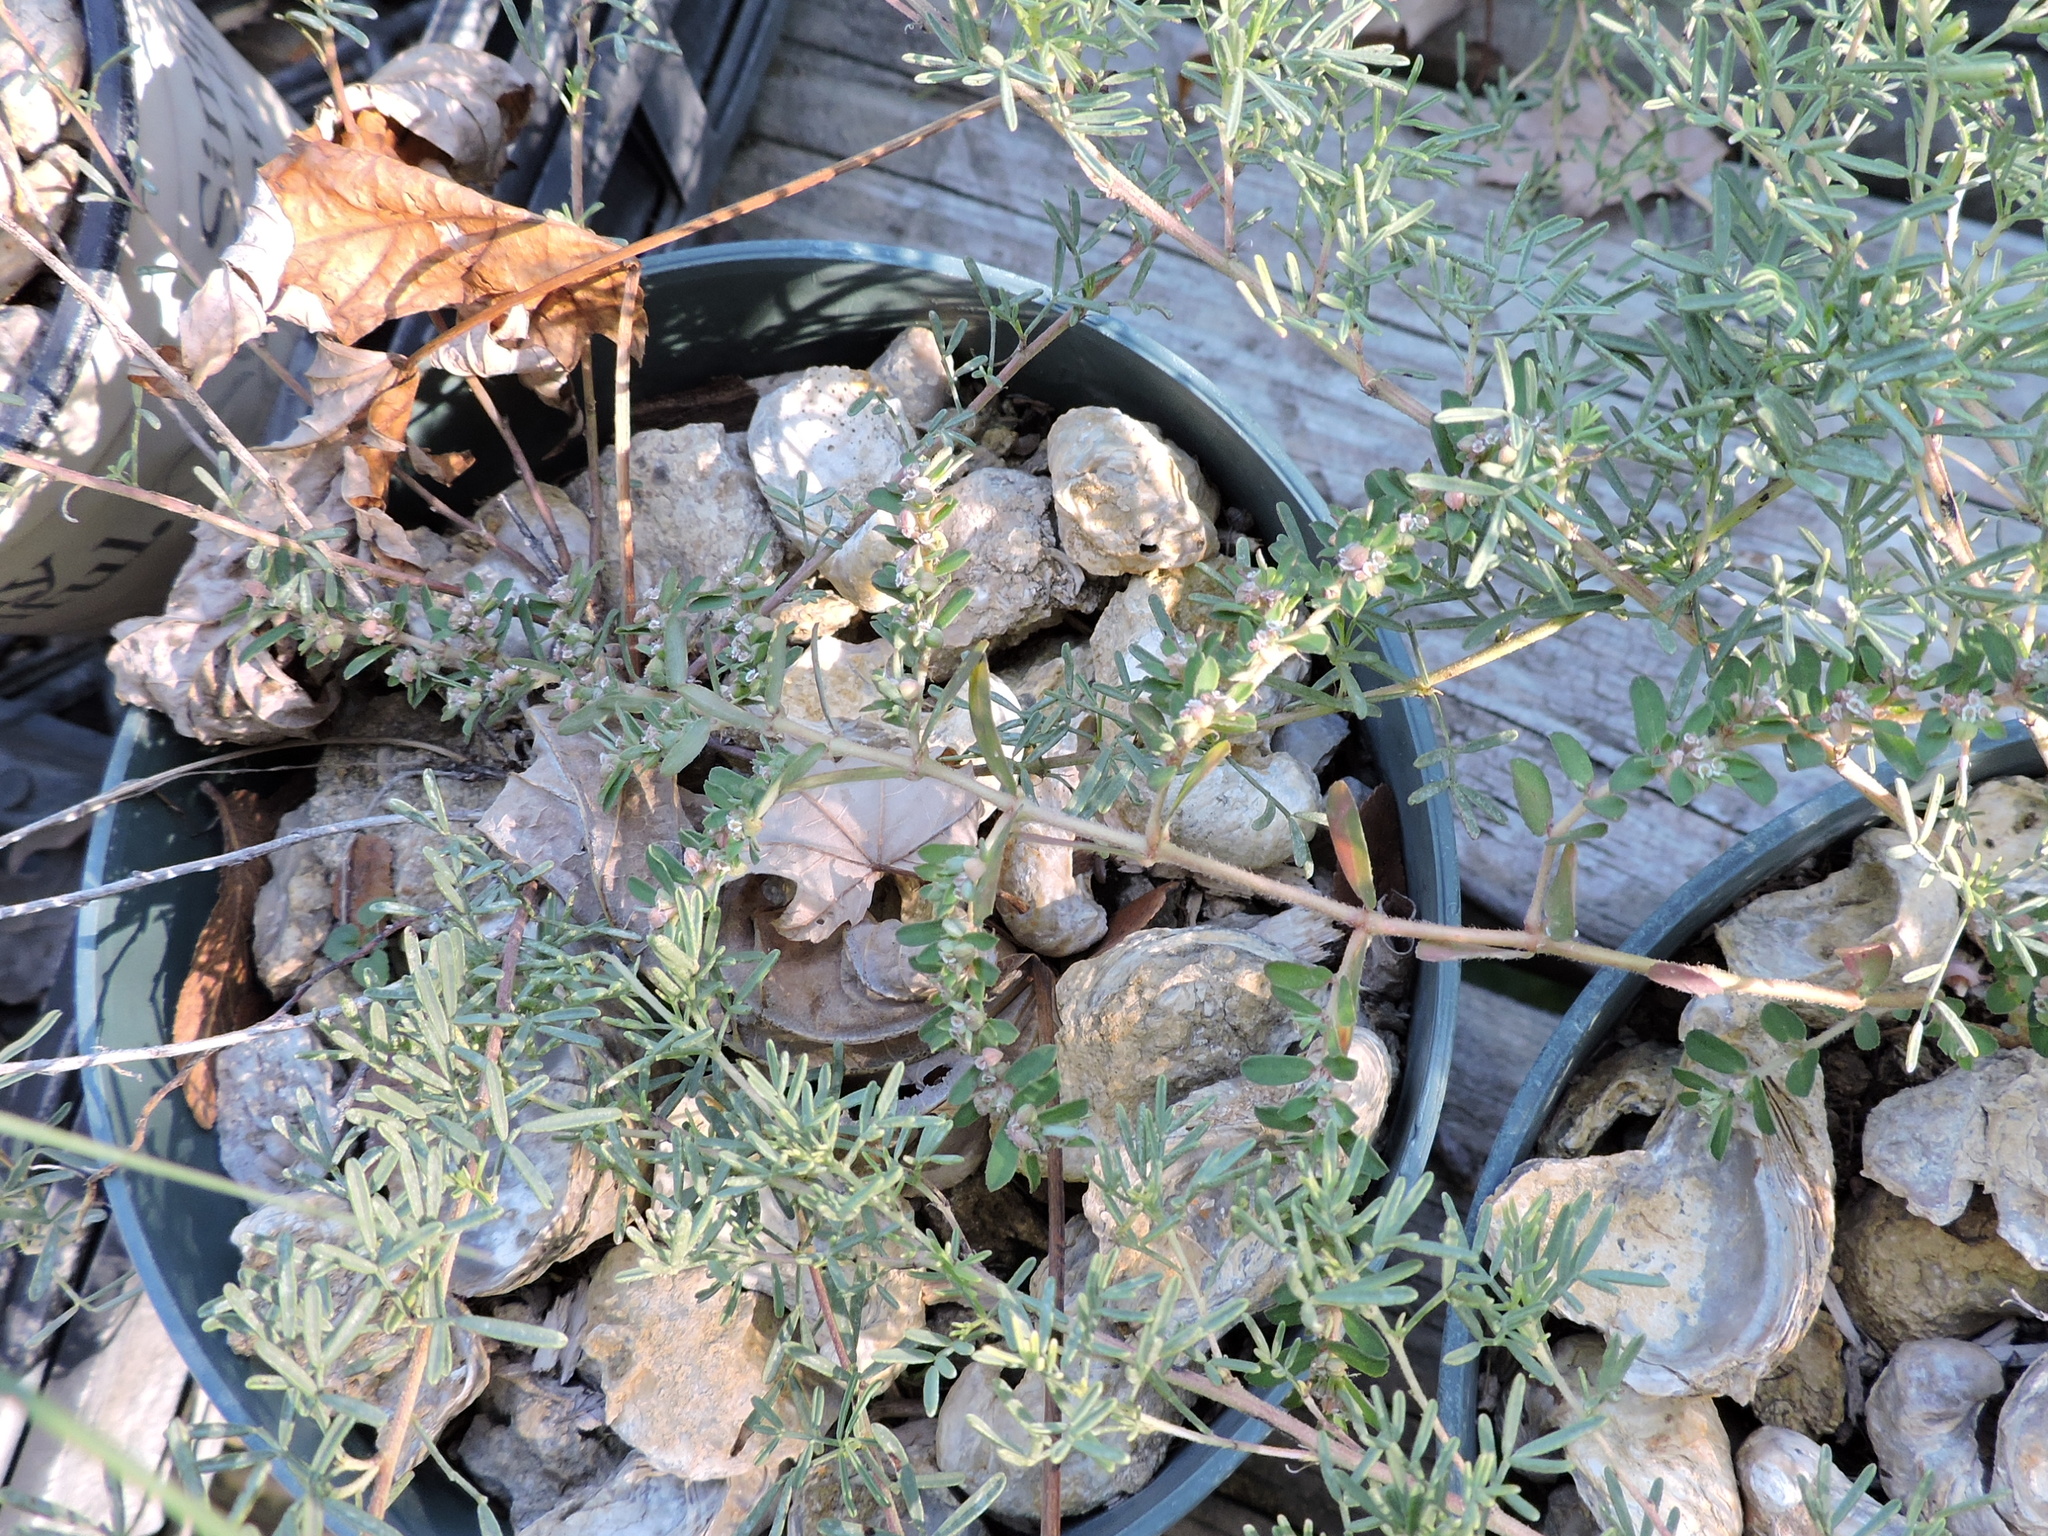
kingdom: Plantae
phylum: Tracheophyta
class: Magnoliopsida
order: Malpighiales
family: Euphorbiaceae
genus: Euphorbia
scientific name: Euphorbia maculata
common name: Spotted spurge
